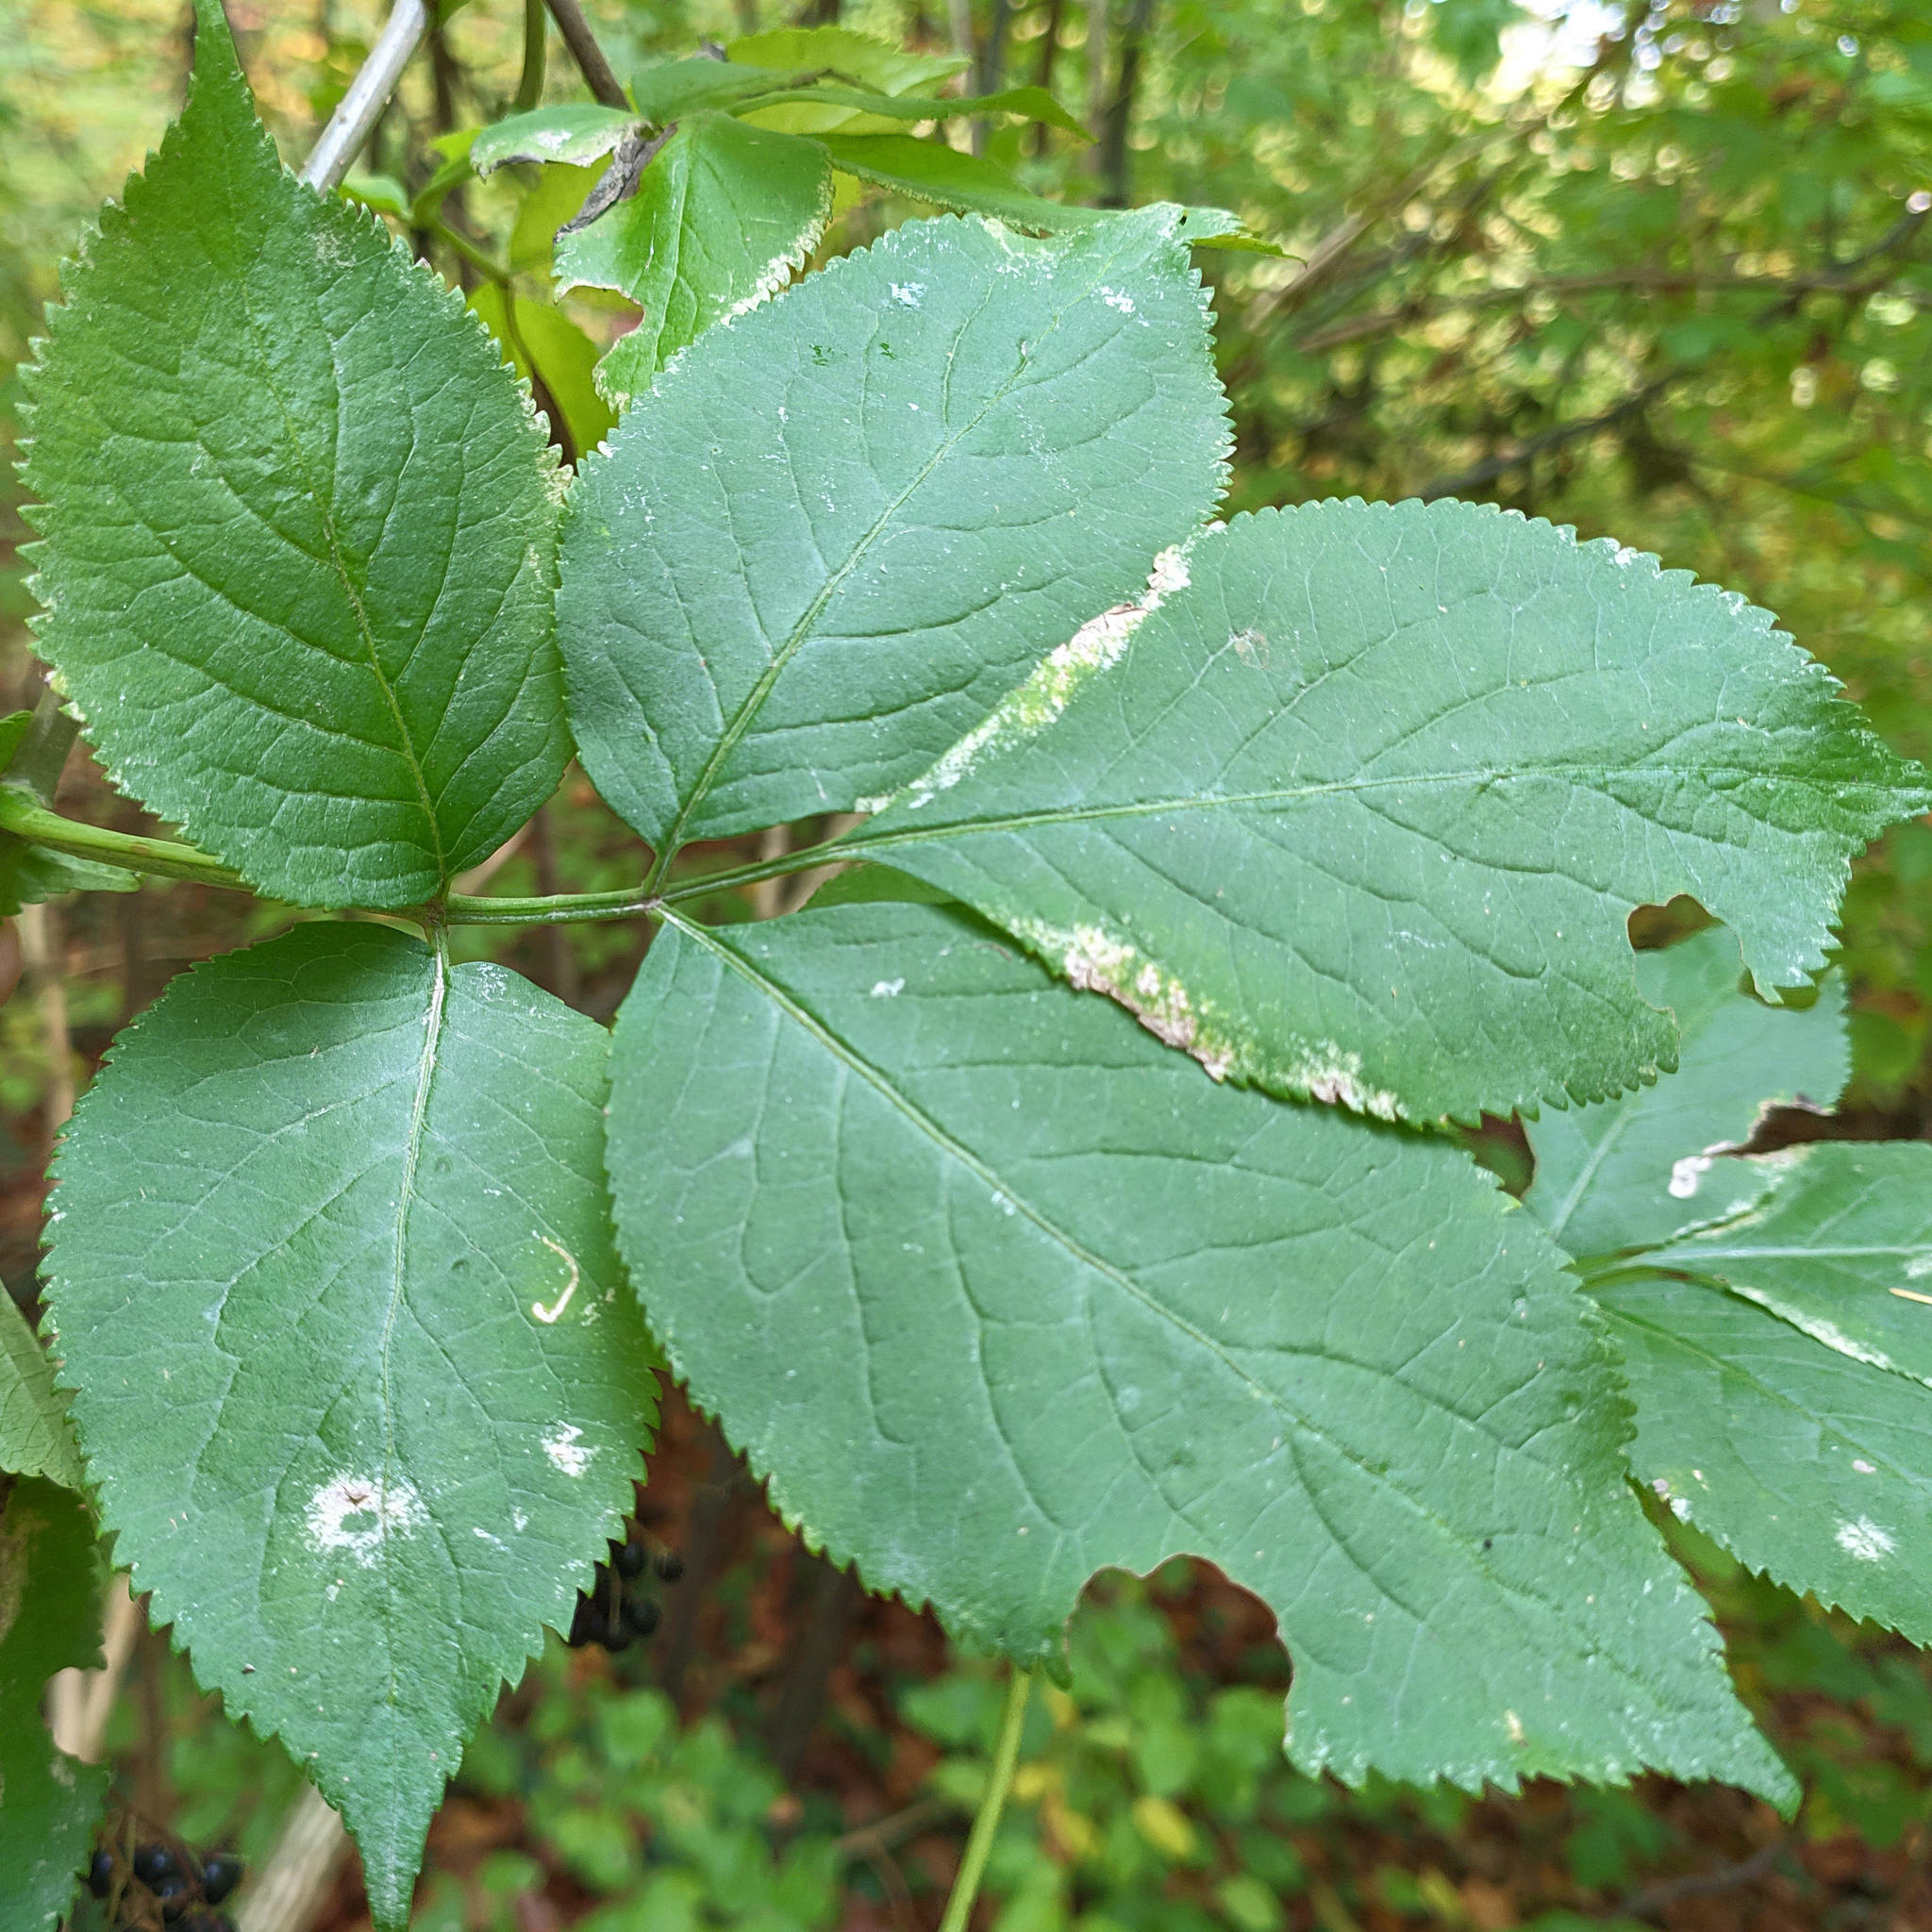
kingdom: Plantae
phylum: Tracheophyta
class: Magnoliopsida
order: Dipsacales
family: Viburnaceae
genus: Sambucus
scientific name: Sambucus nigra
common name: Elder
